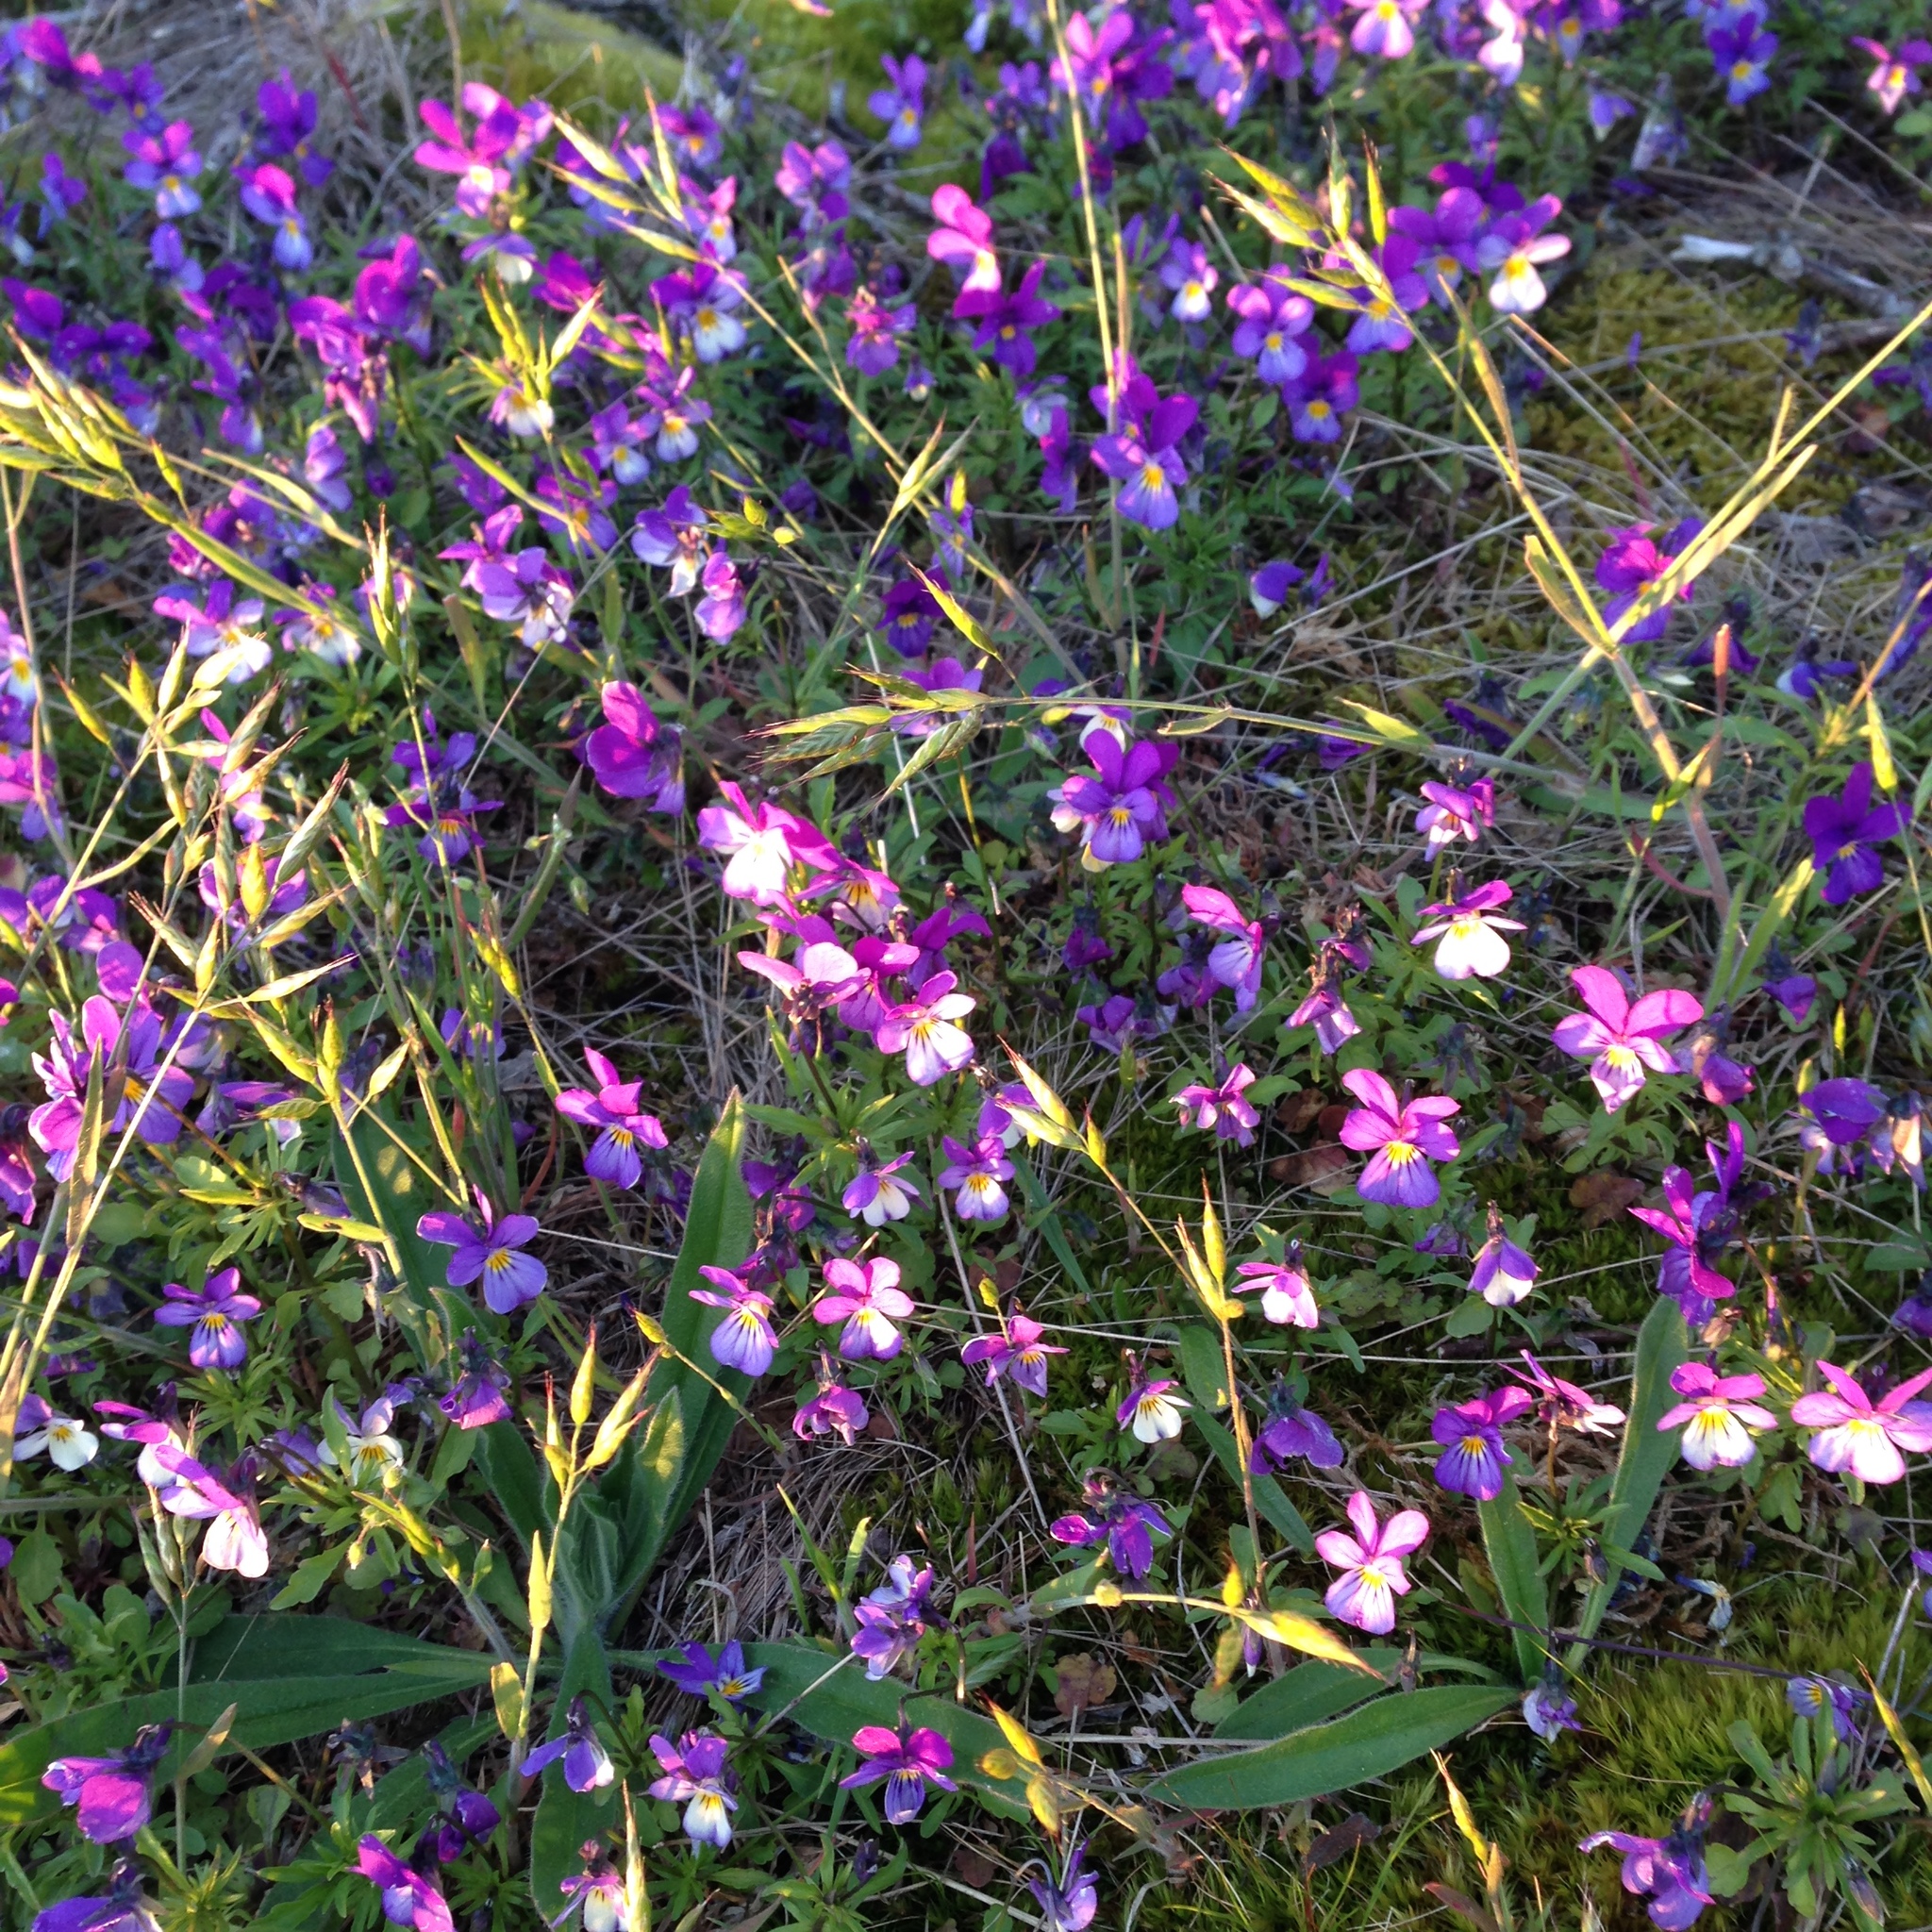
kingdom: Plantae
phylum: Tracheophyta
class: Magnoliopsida
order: Malpighiales
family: Violaceae
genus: Viola
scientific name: Viola tricolor
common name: Pansy
